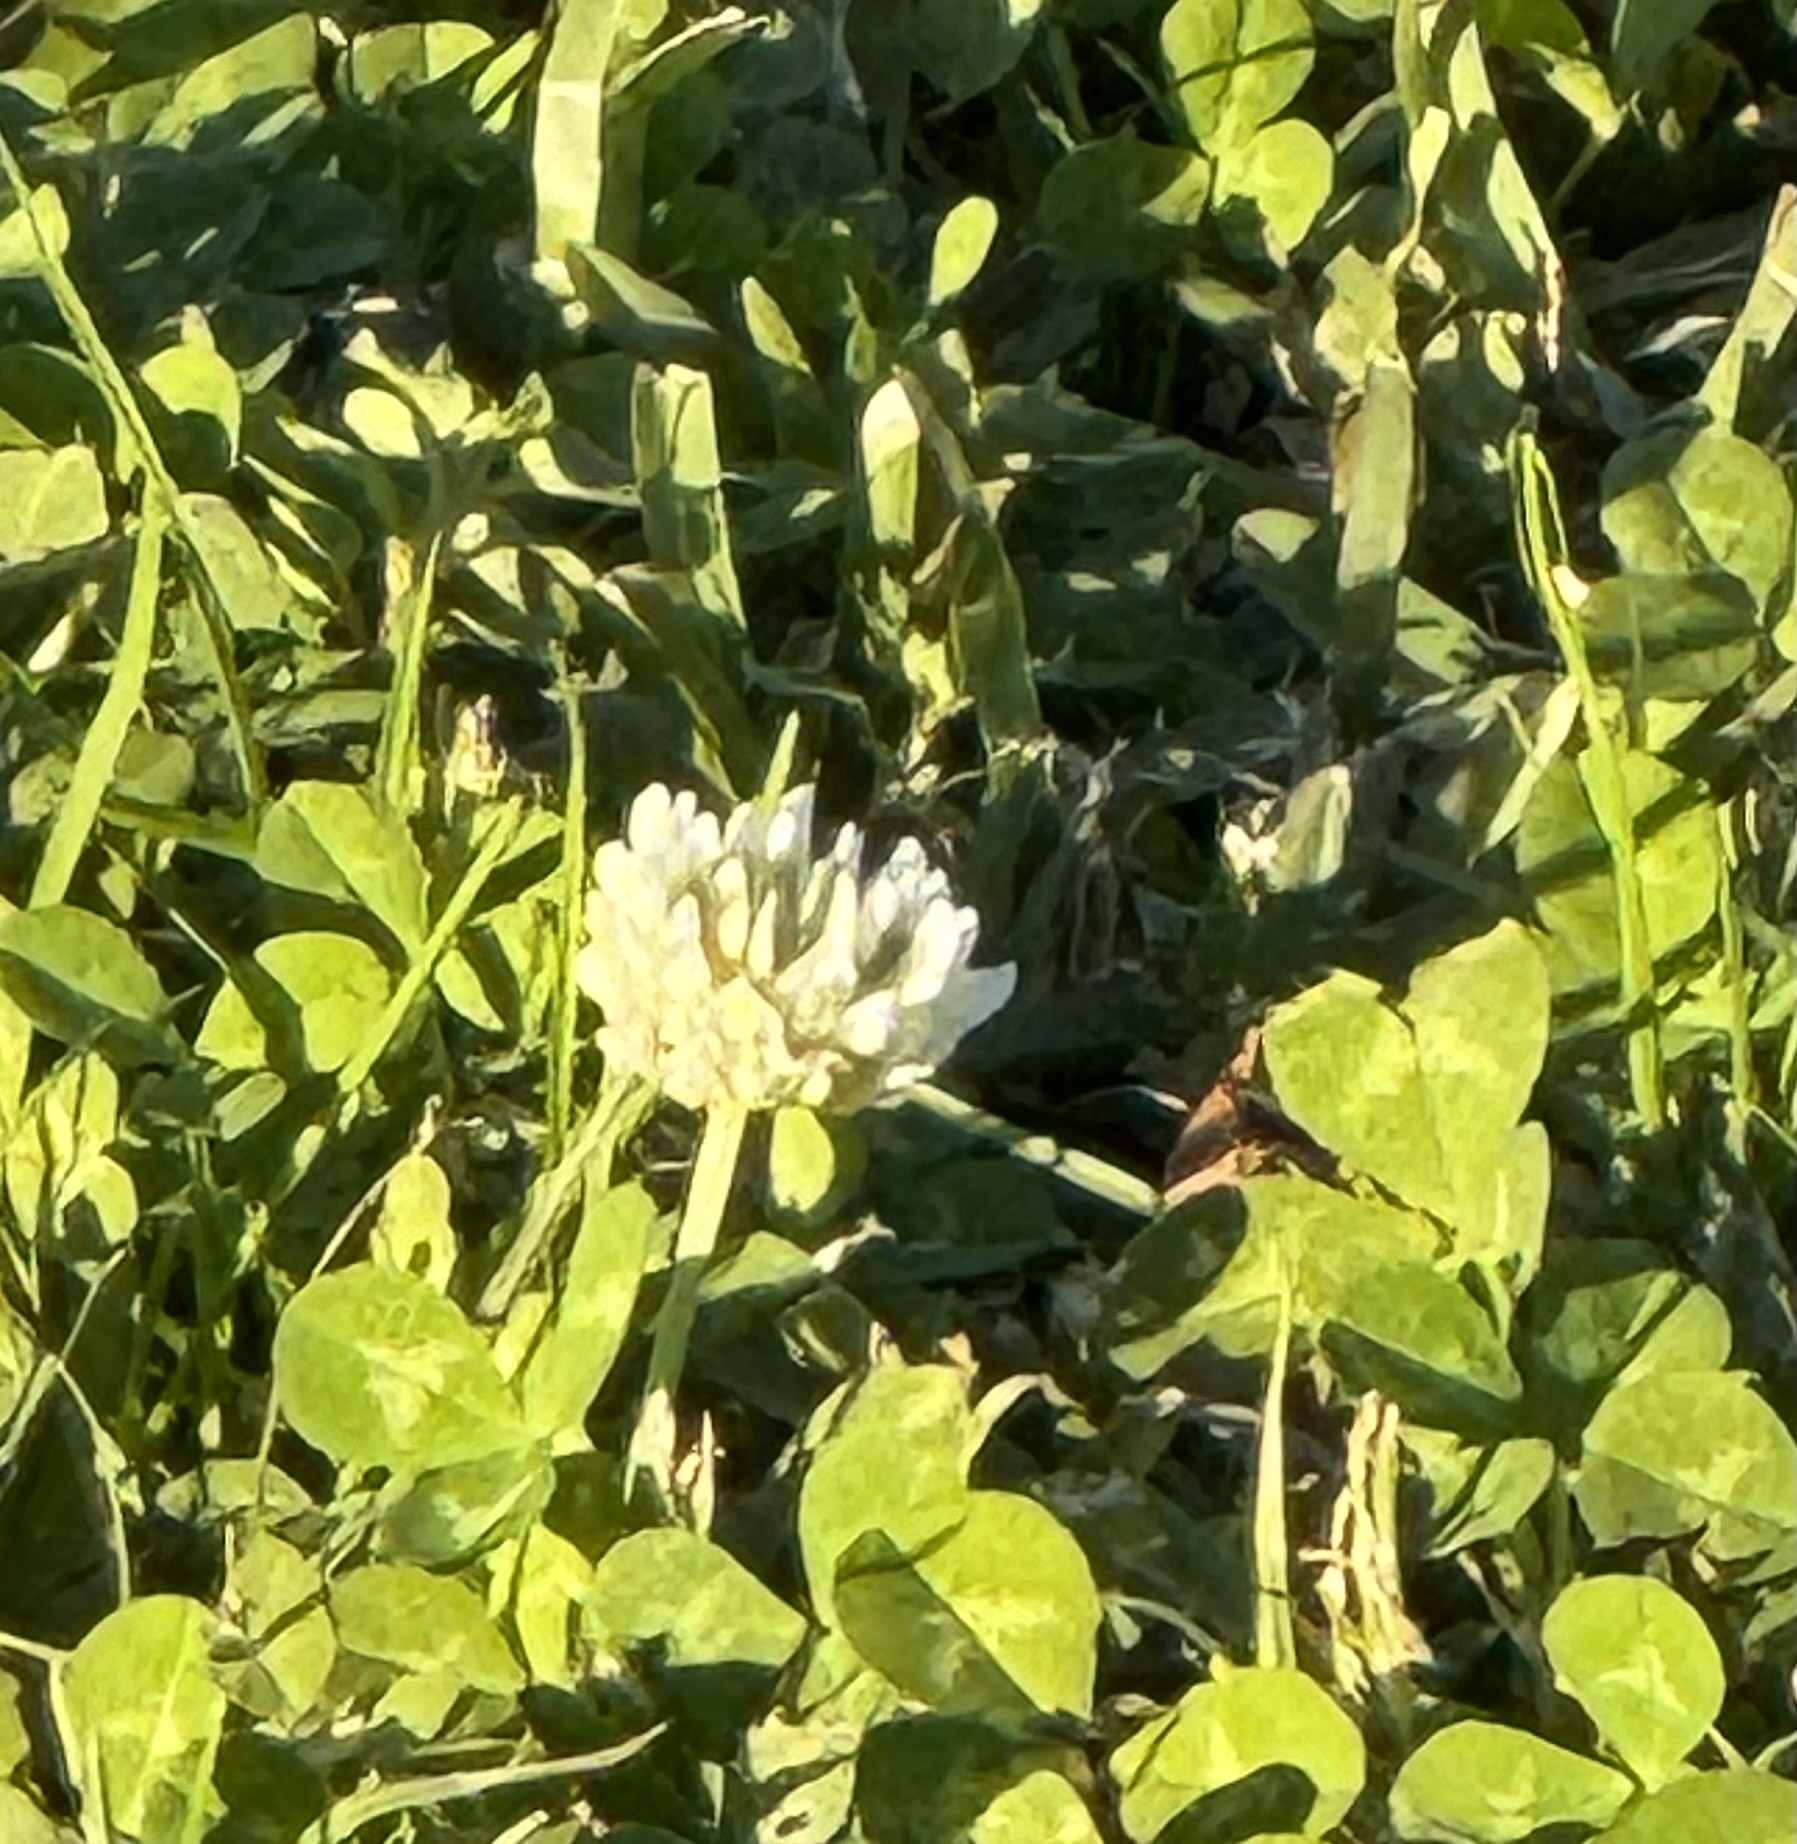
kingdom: Plantae
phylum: Tracheophyta
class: Magnoliopsida
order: Fabales
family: Fabaceae
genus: Trifolium
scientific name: Trifolium repens
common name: White clover
